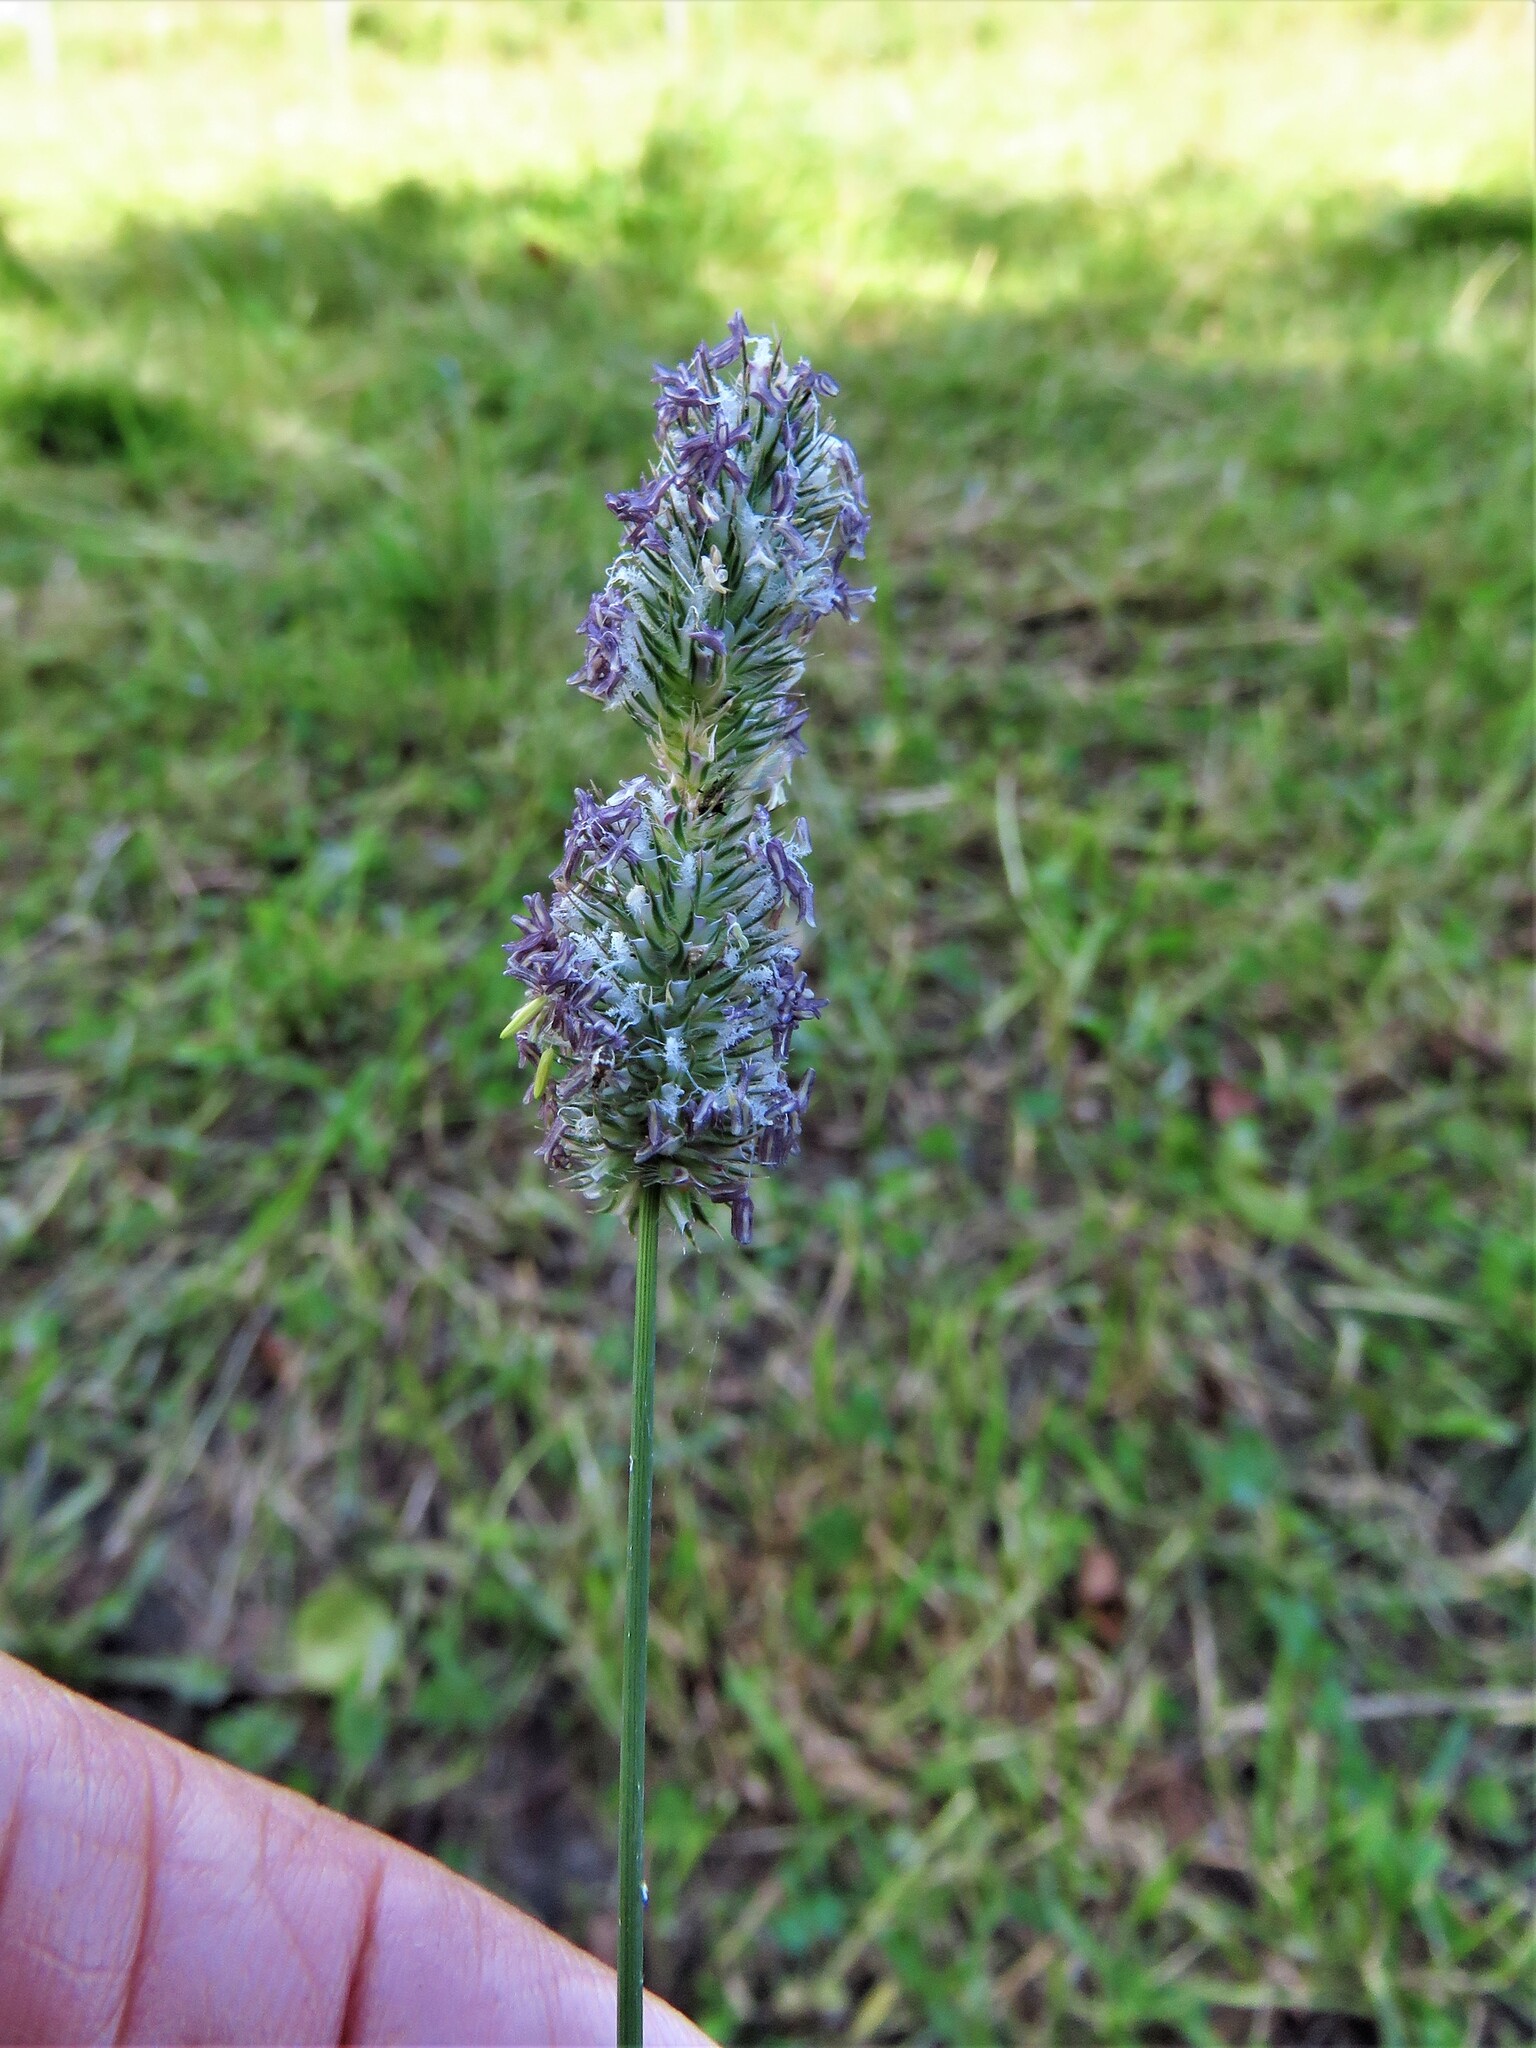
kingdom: Plantae
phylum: Tracheophyta
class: Liliopsida
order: Poales
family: Poaceae
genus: Phleum
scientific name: Phleum pratense
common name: Timothy grass
